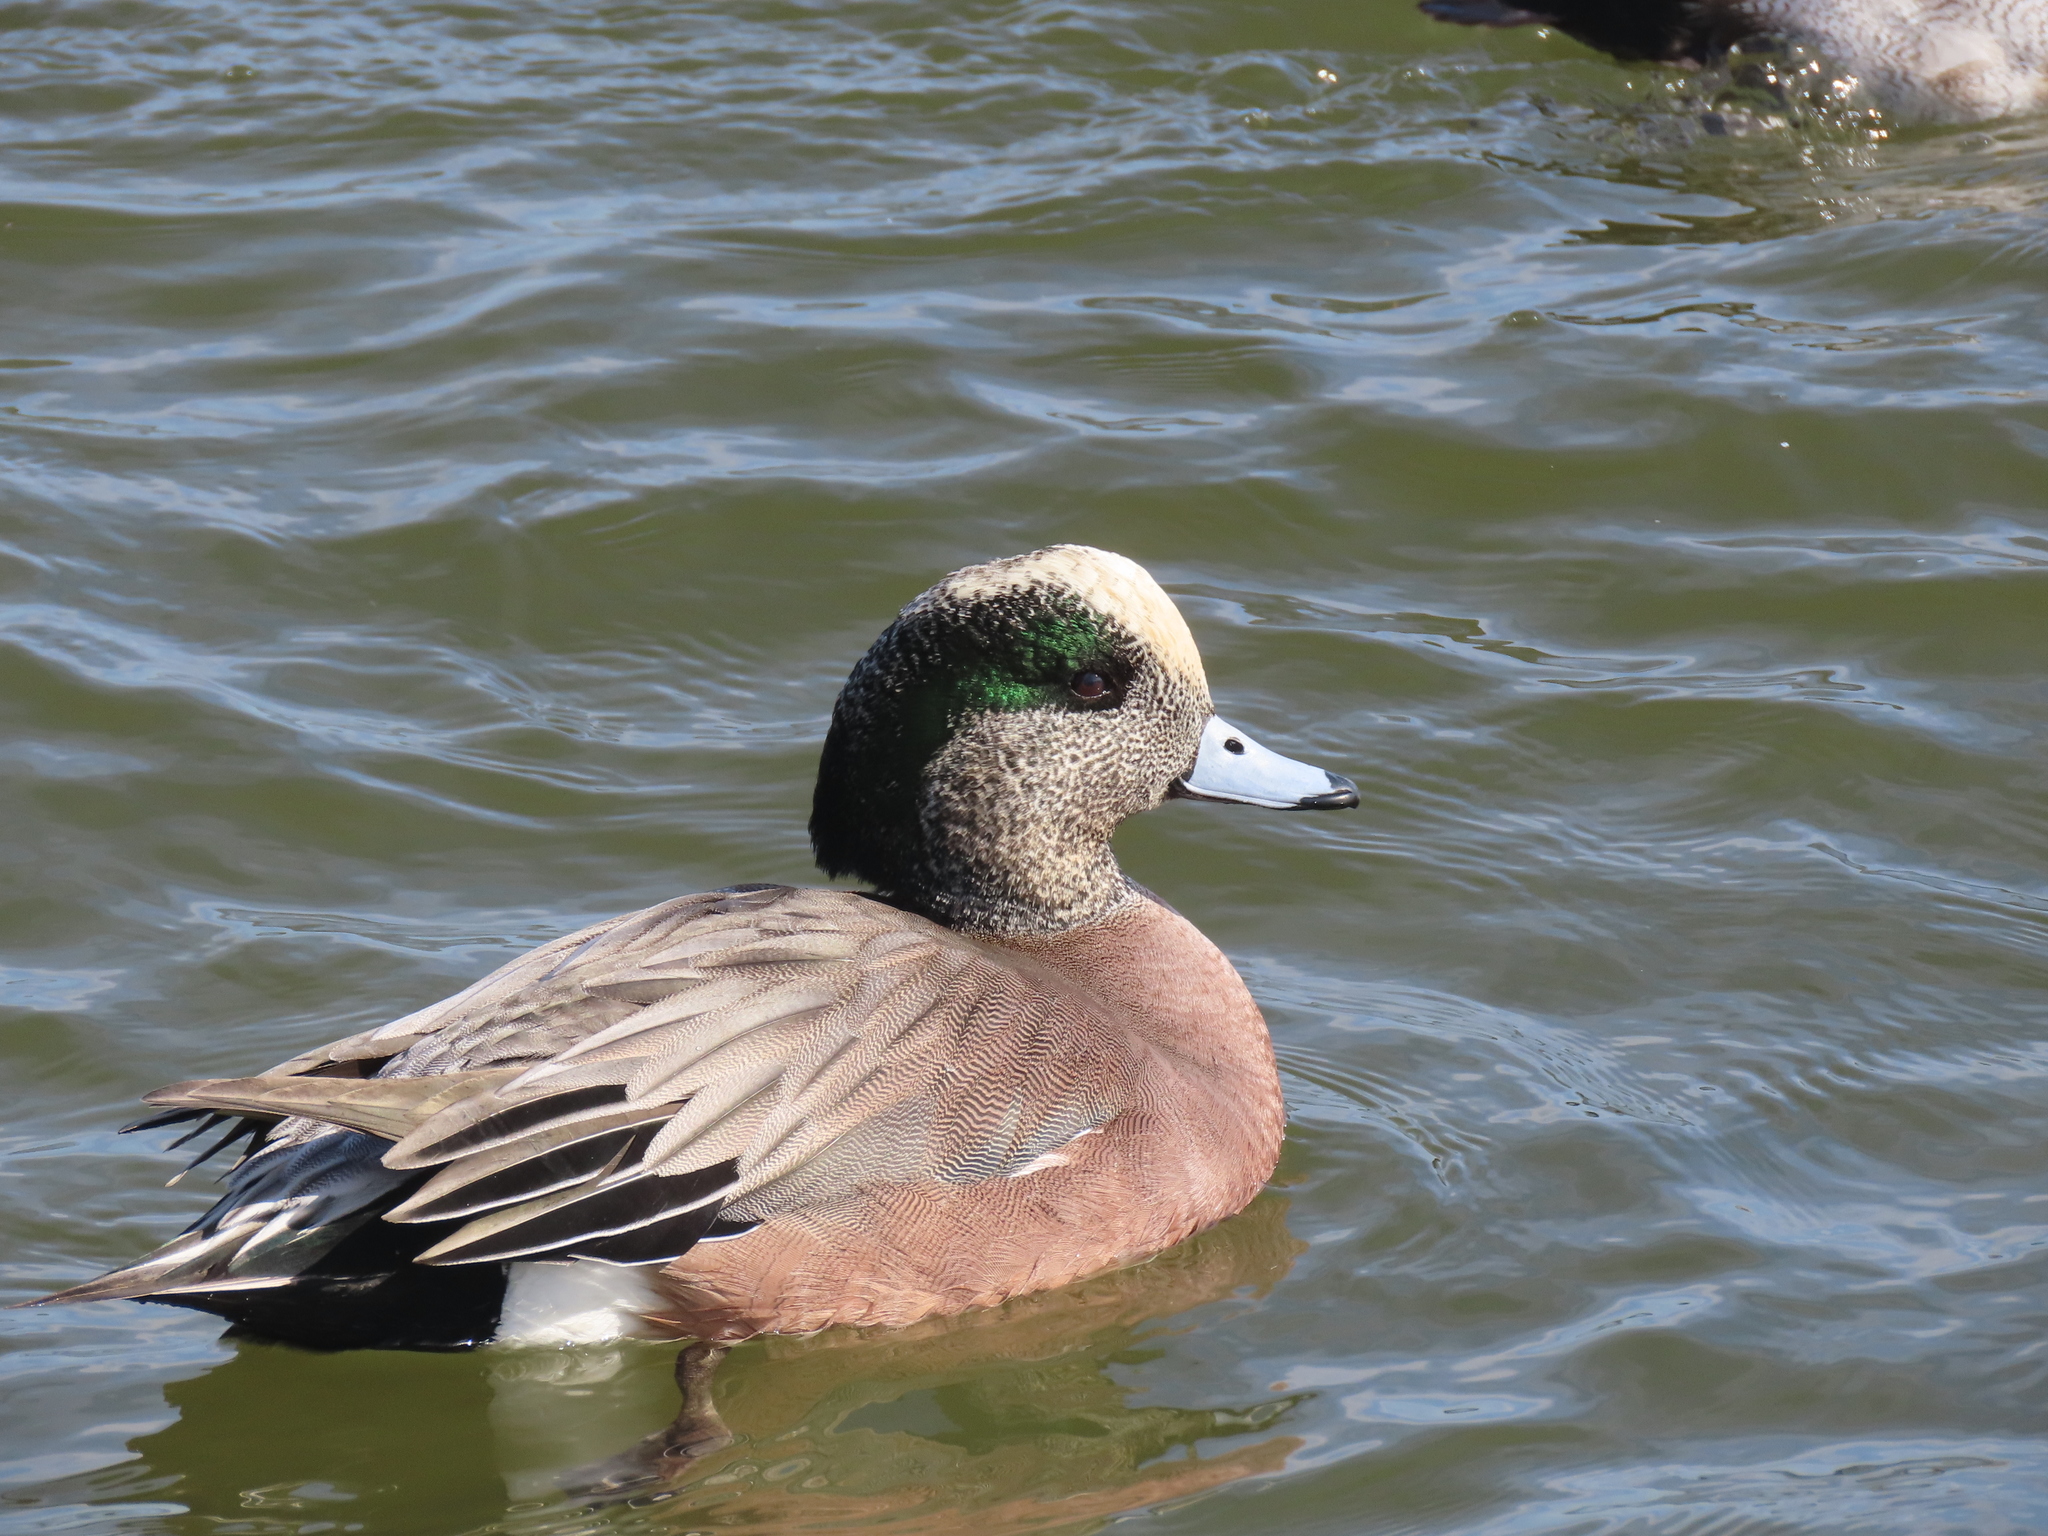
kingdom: Animalia
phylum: Chordata
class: Aves
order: Anseriformes
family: Anatidae
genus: Mareca
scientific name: Mareca americana
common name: American wigeon
